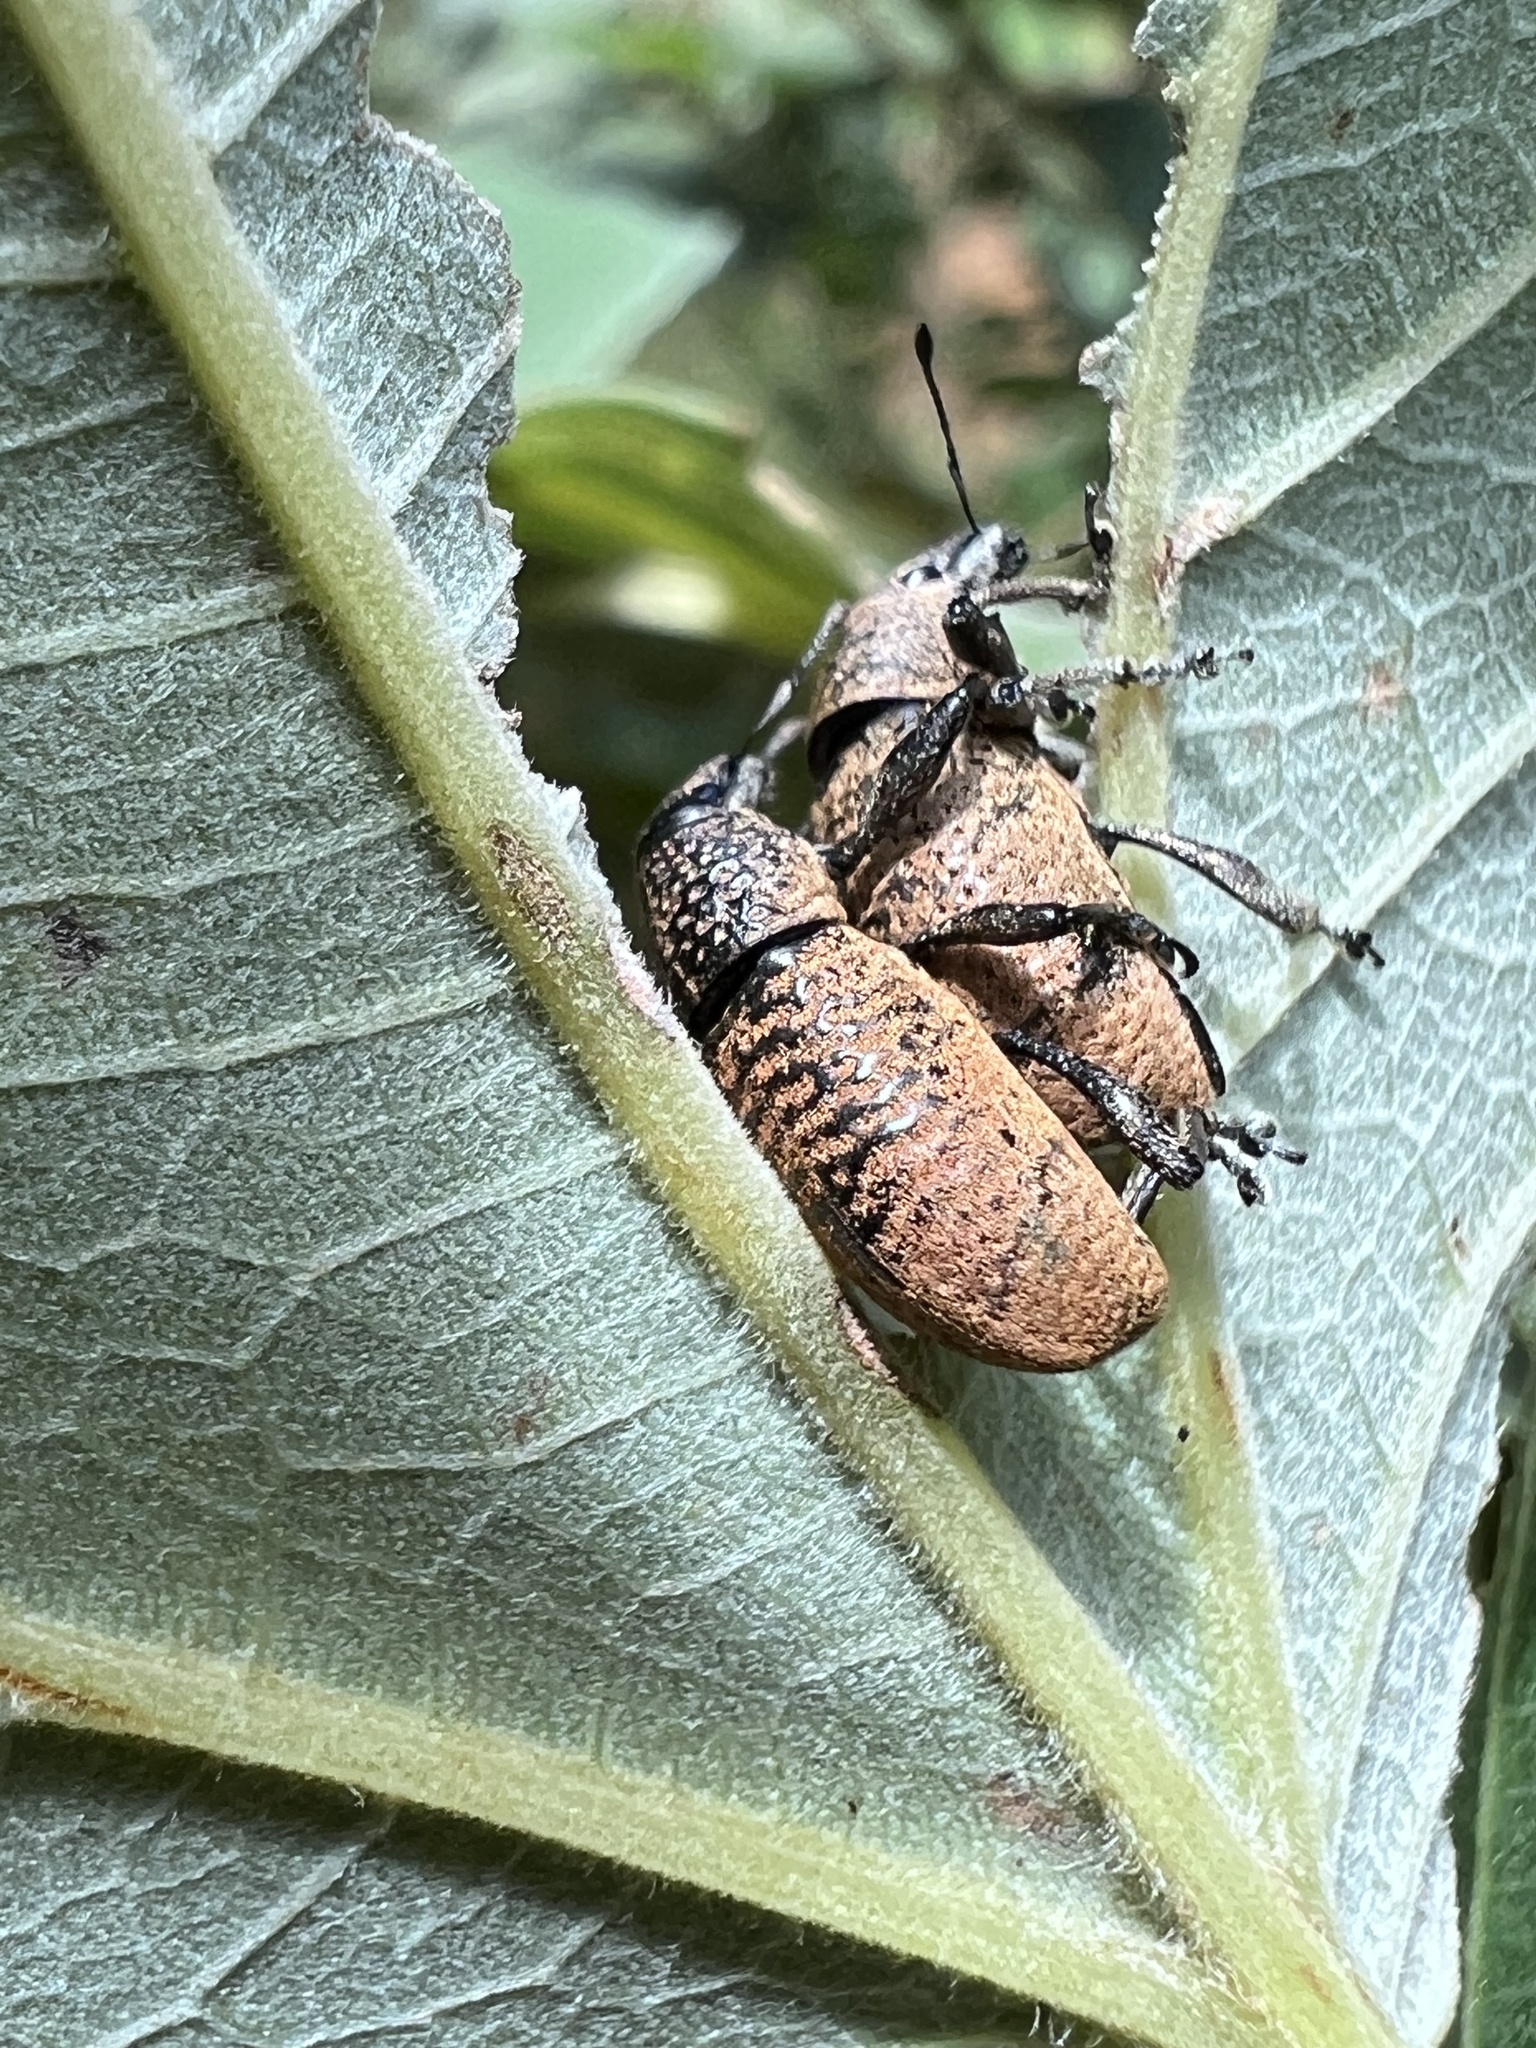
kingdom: Animalia
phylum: Arthropoda
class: Insecta
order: Coleoptera
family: Curculionidae
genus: Cleistolophus
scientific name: Cleistolophus similis
